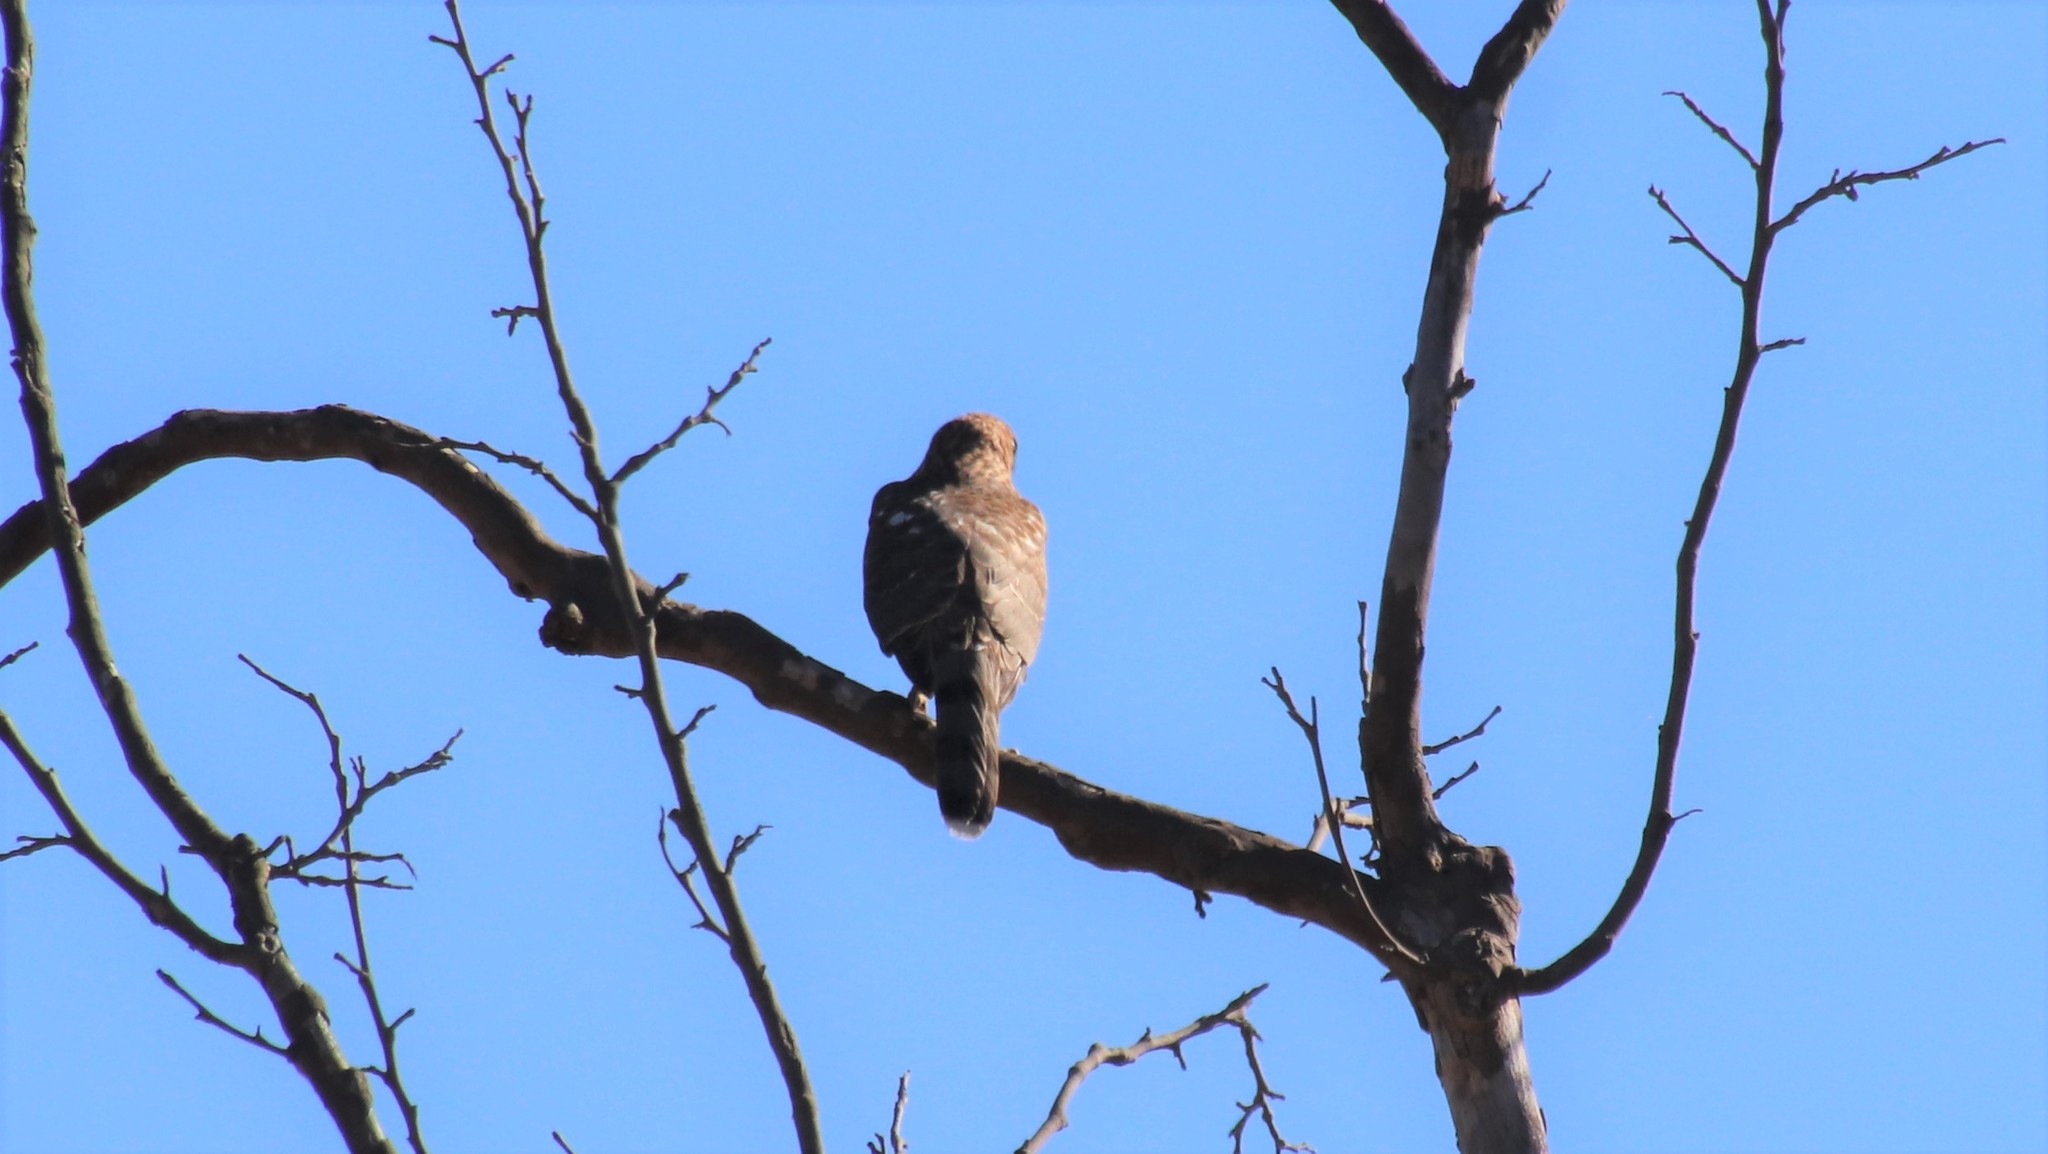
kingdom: Animalia
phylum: Chordata
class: Aves
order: Accipitriformes
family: Accipitridae
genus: Accipiter
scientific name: Accipiter cooperii
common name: Cooper's hawk
